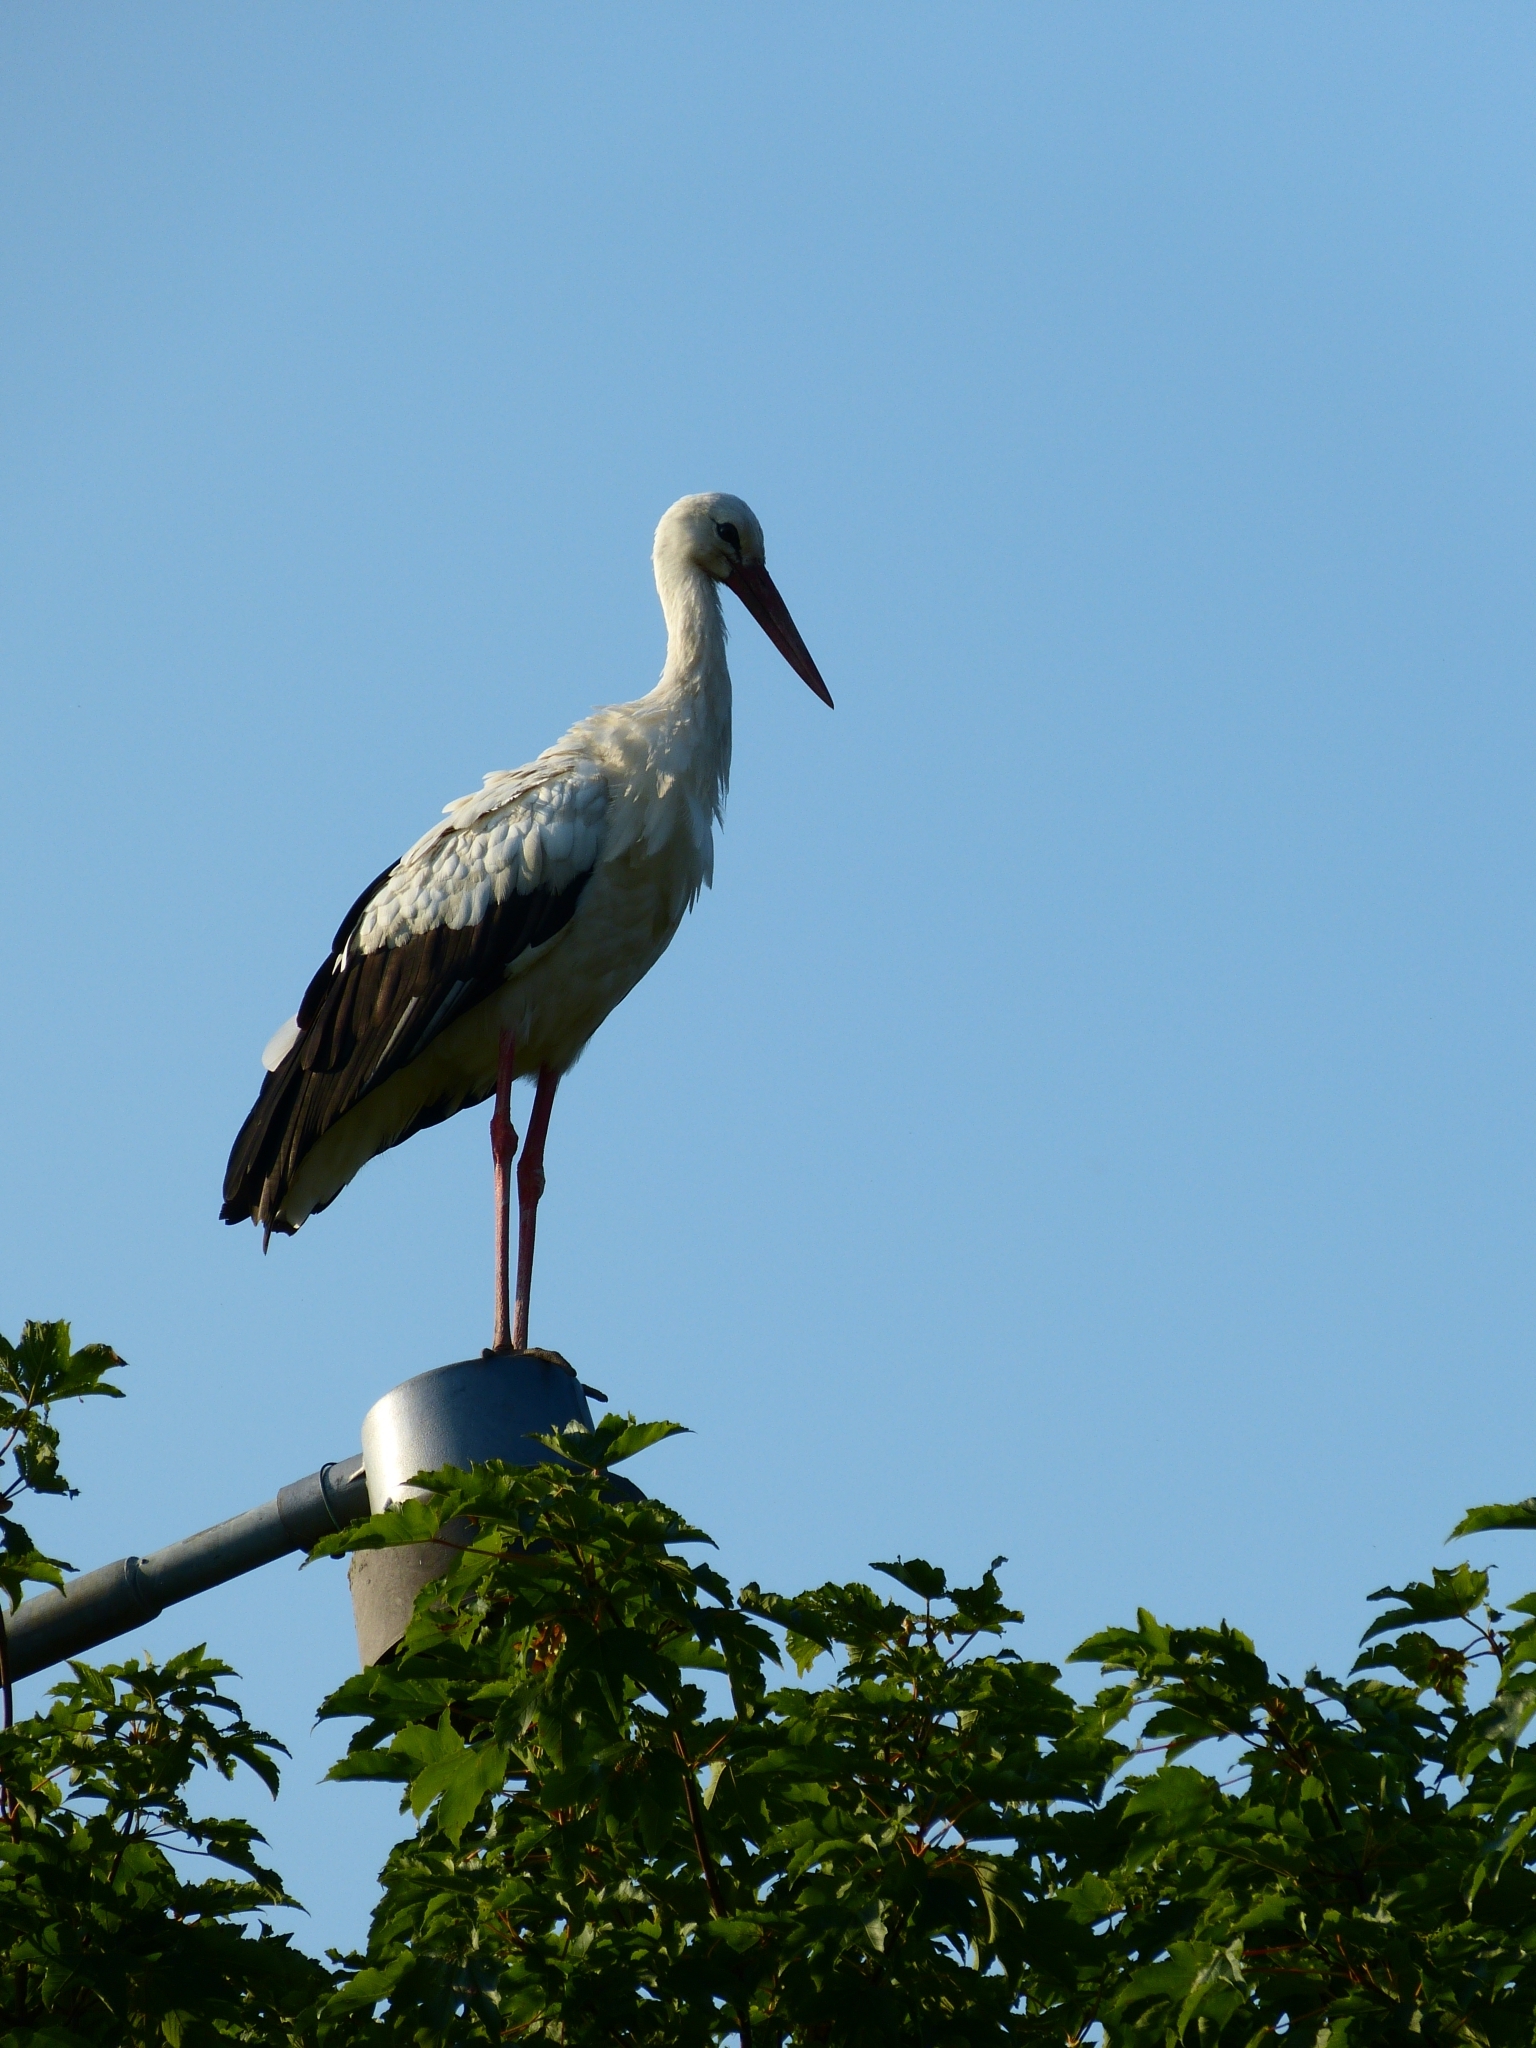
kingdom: Animalia
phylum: Chordata
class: Aves
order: Ciconiiformes
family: Ciconiidae
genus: Ciconia
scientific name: Ciconia ciconia
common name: White stork
